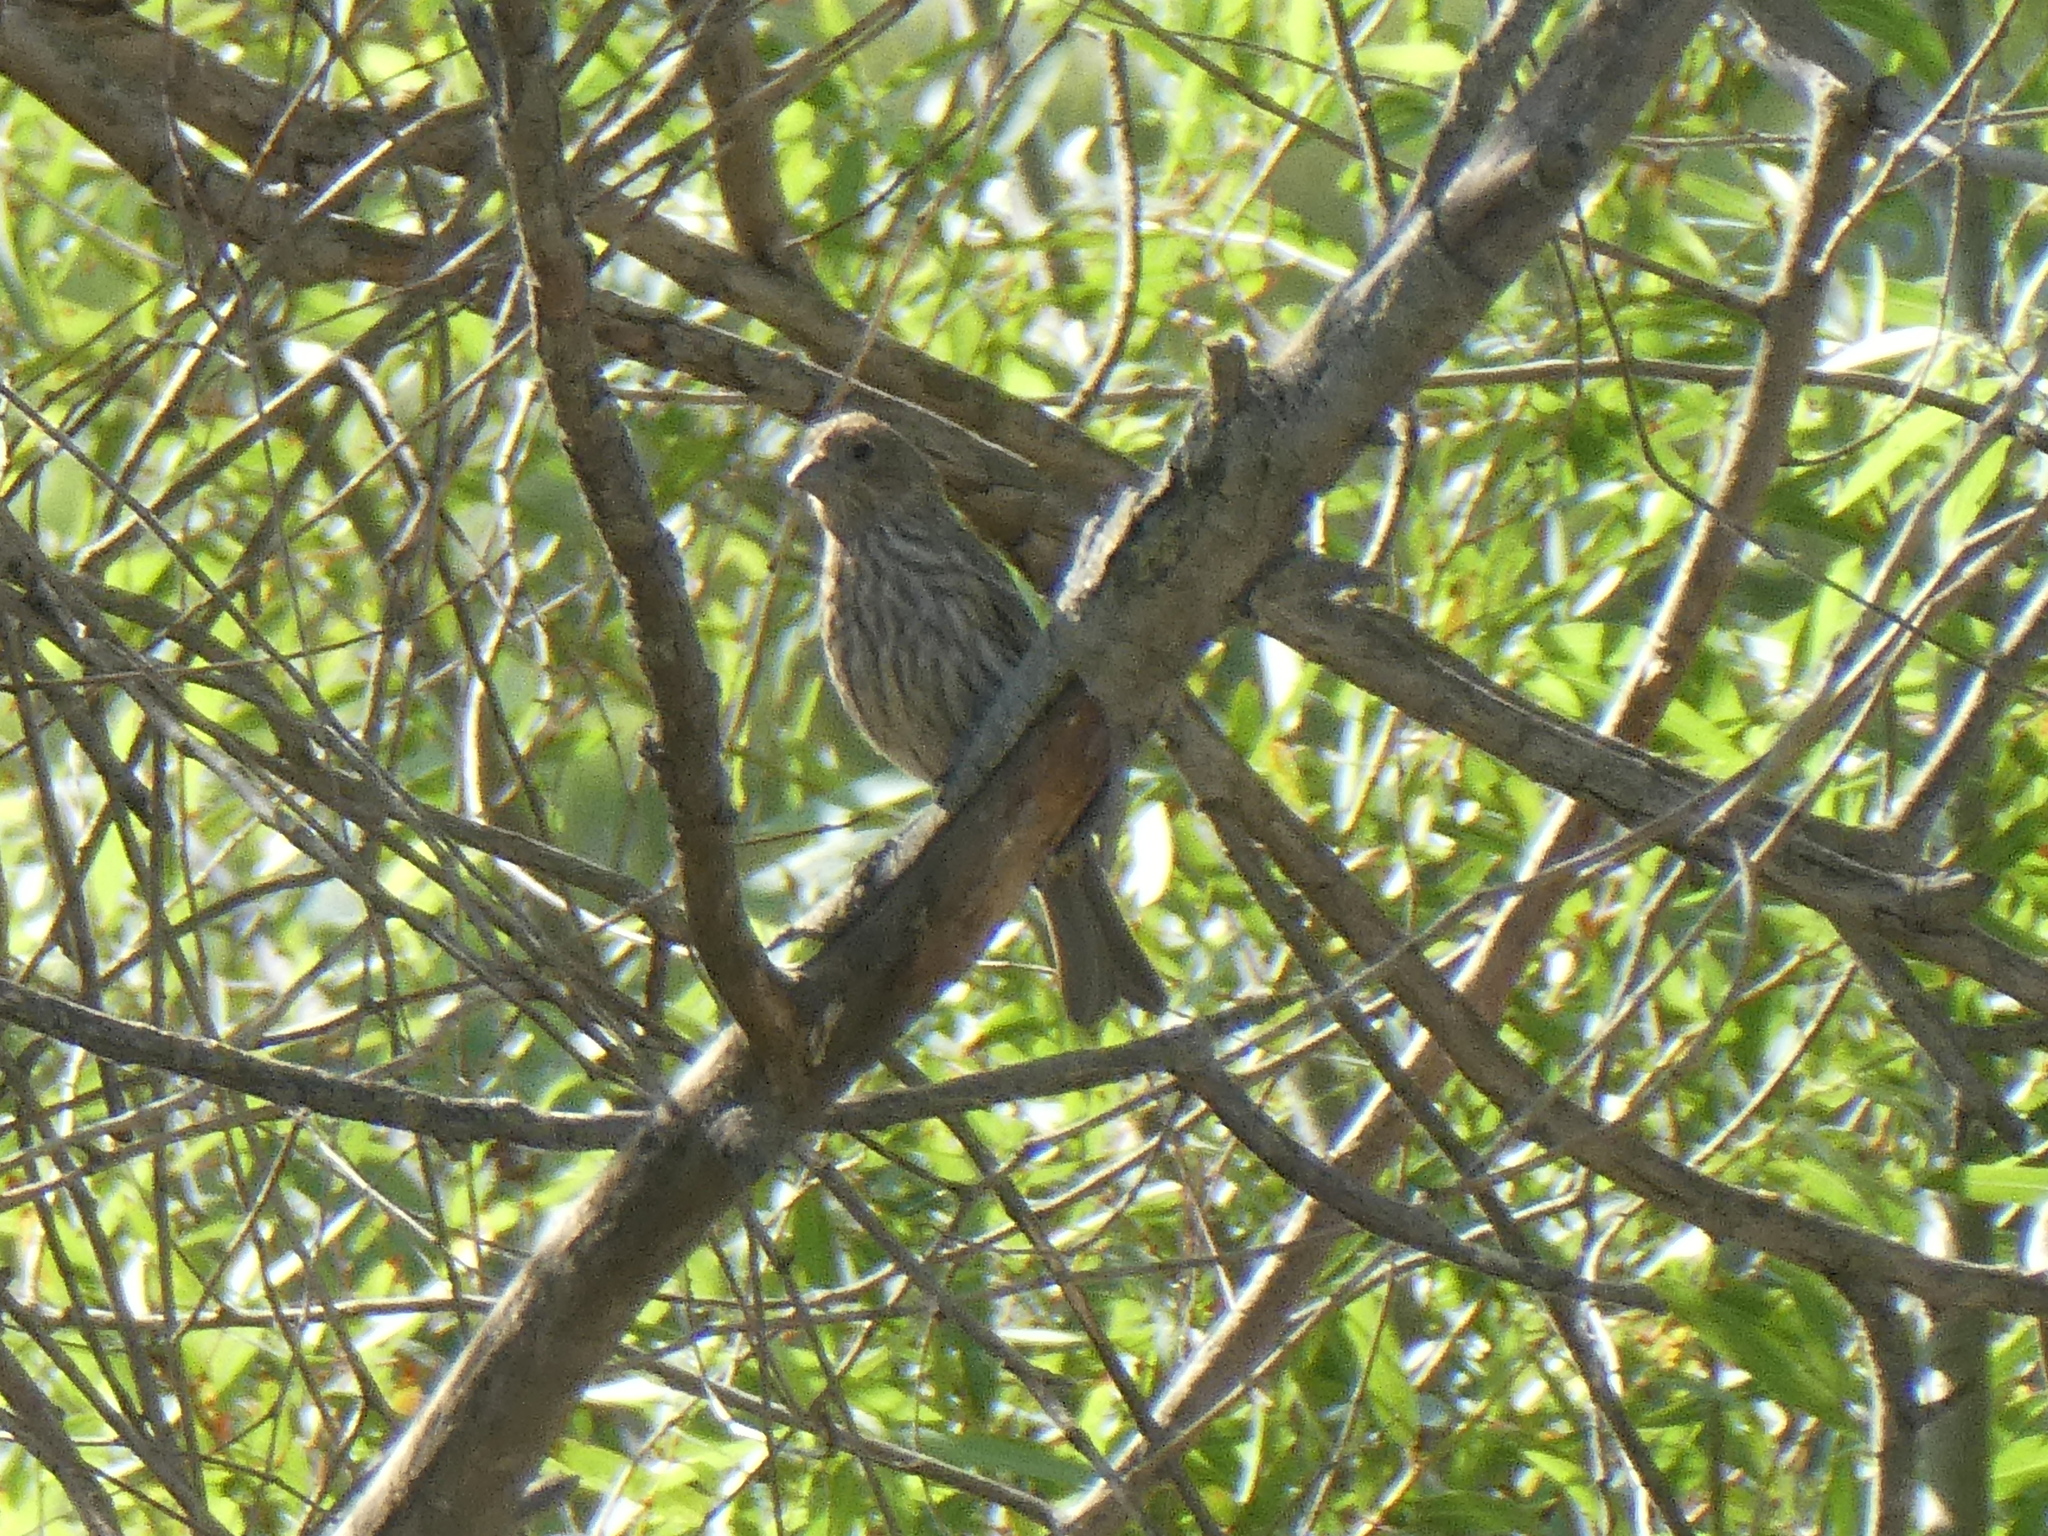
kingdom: Animalia
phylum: Chordata
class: Aves
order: Passeriformes
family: Fringillidae
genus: Haemorhous
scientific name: Haemorhous mexicanus
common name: House finch
